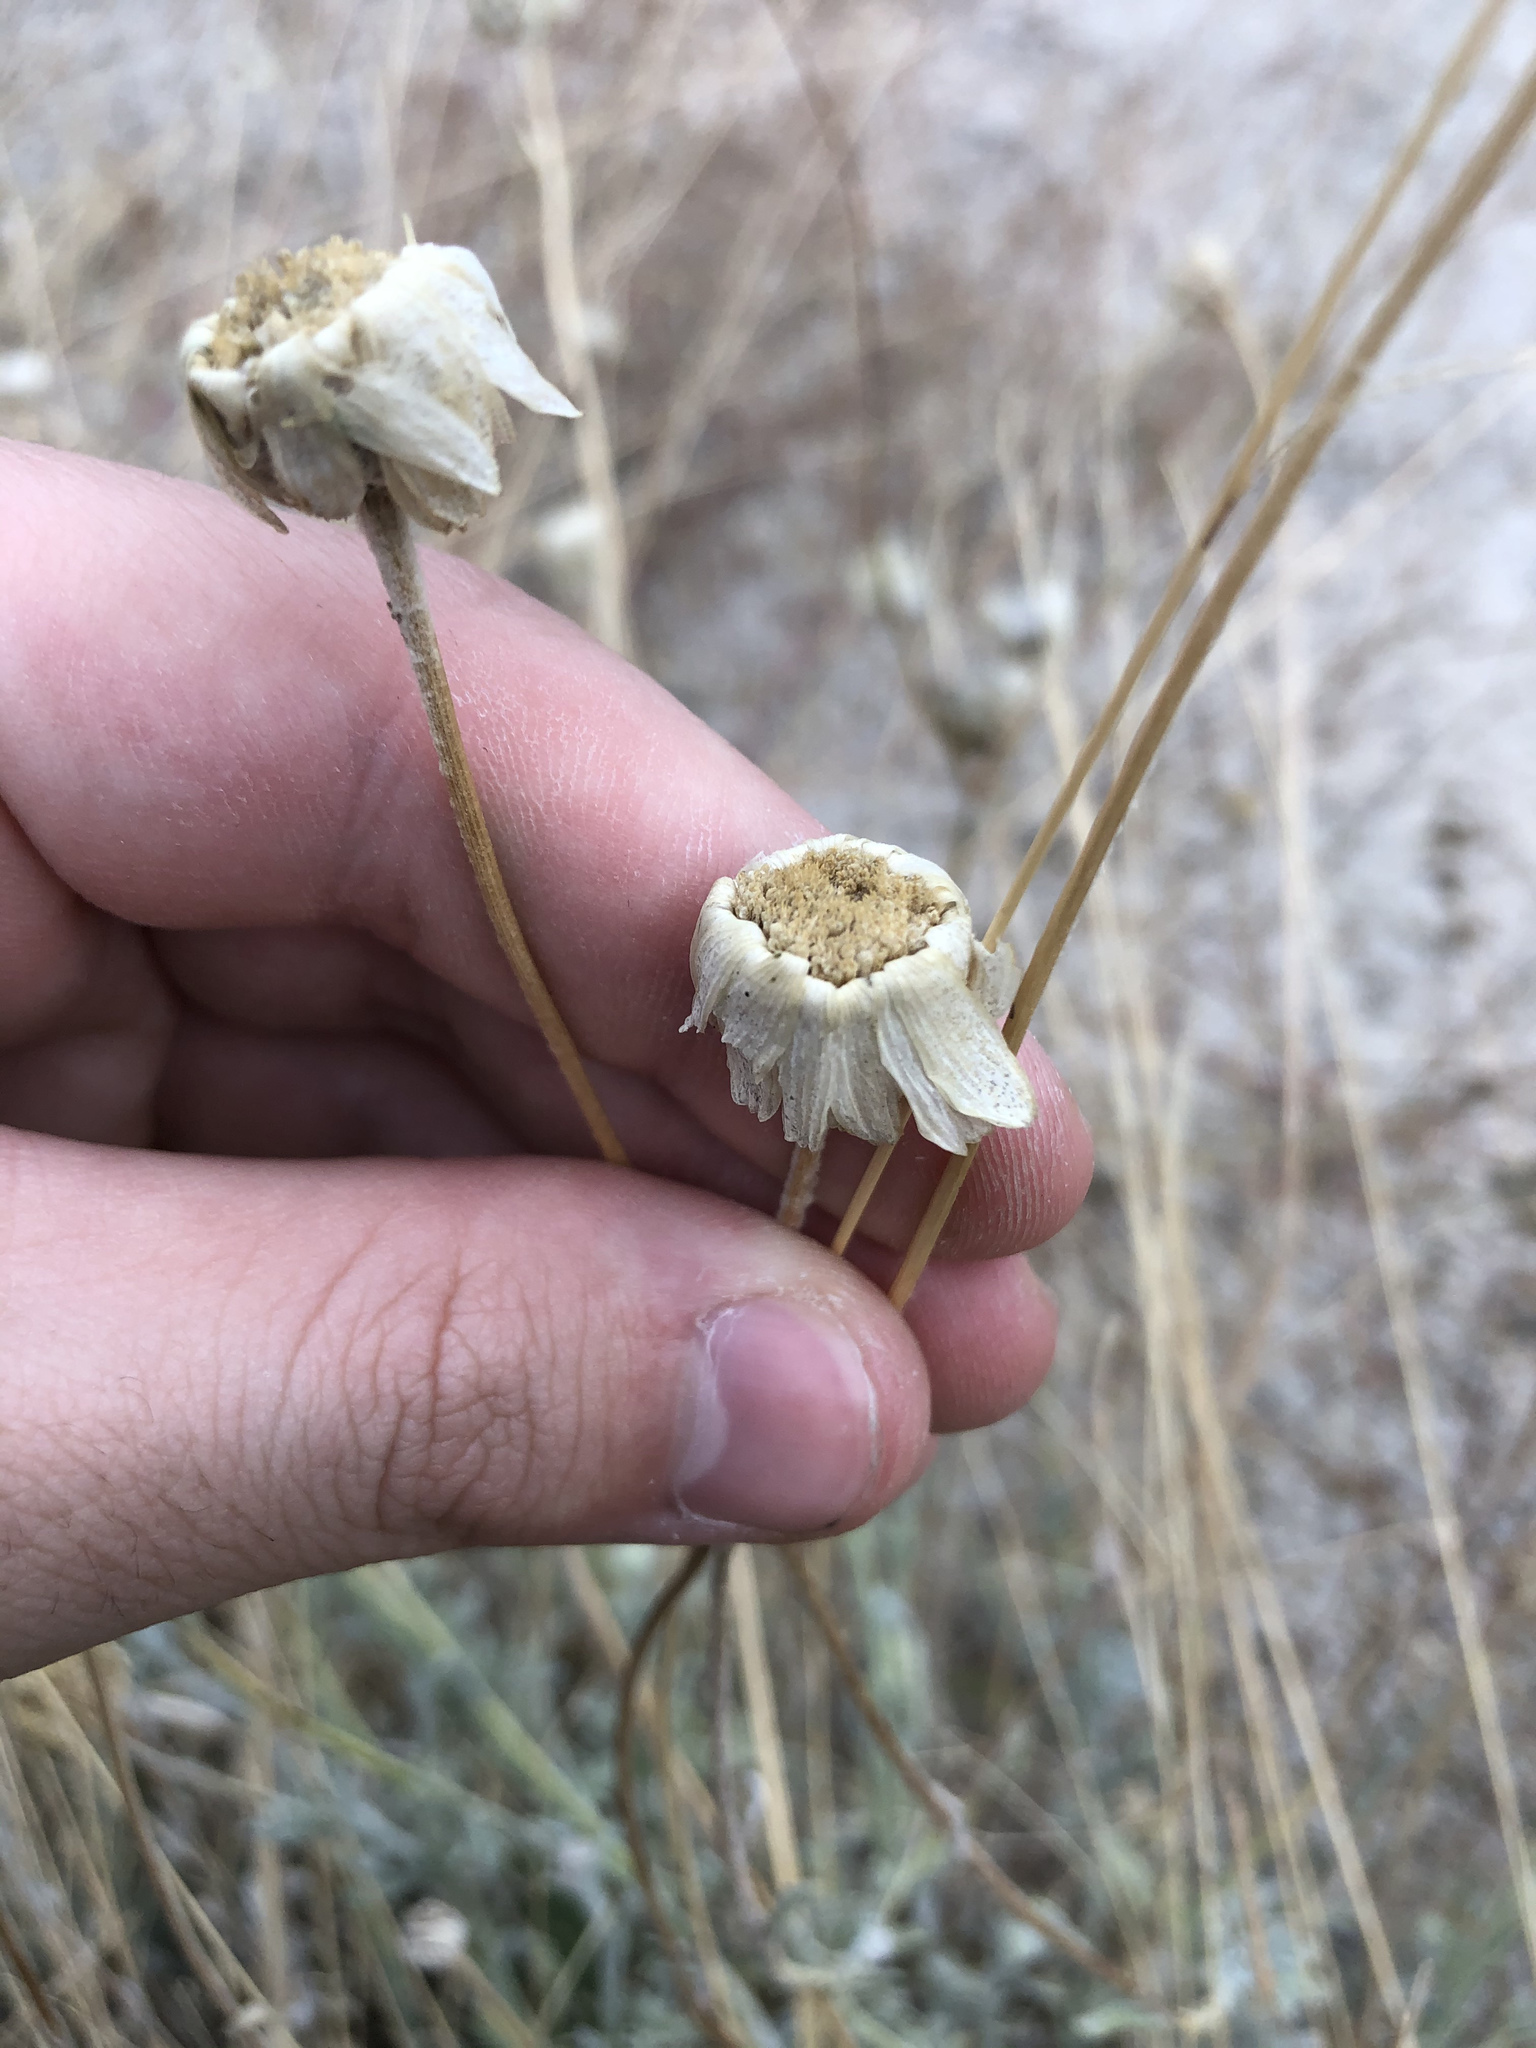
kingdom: Plantae
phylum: Tracheophyta
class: Magnoliopsida
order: Asterales
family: Asteraceae
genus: Baileya
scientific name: Baileya multiradiata
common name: Desert-marigold
